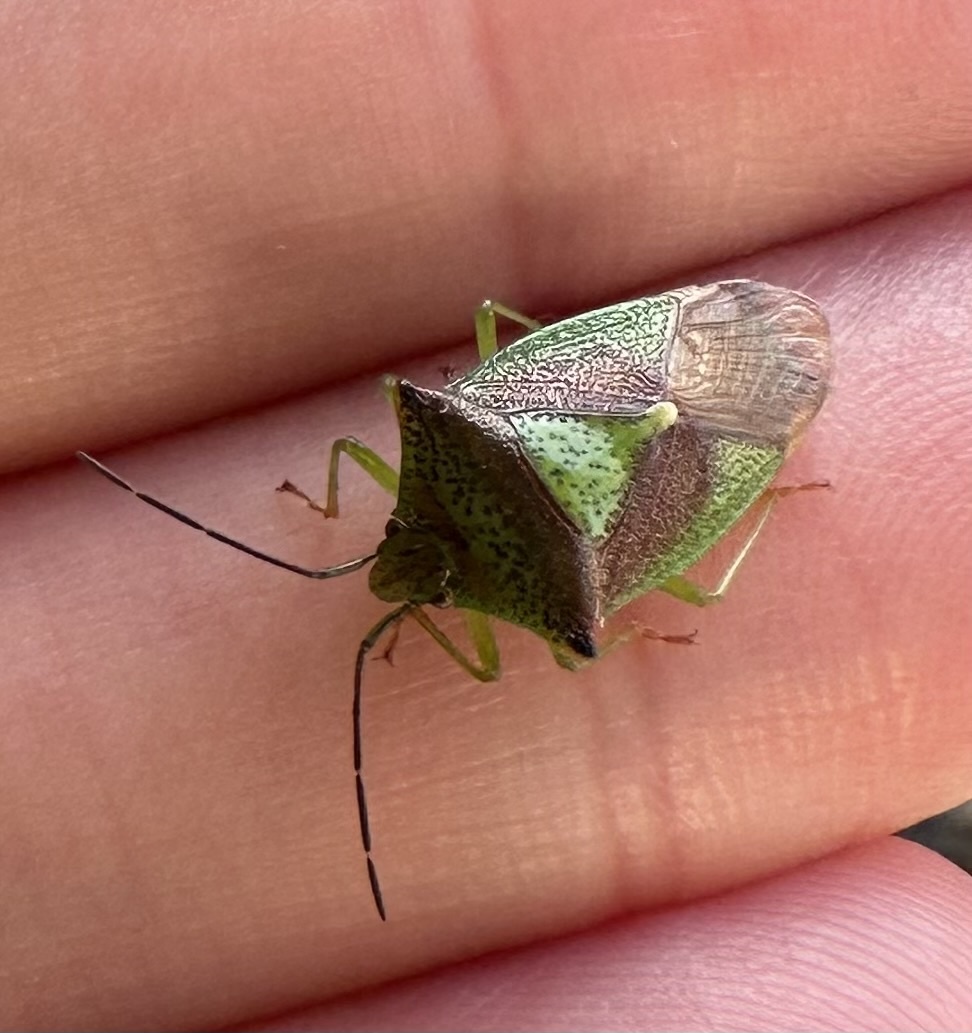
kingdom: Animalia
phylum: Arthropoda
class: Insecta
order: Hemiptera
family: Acanthosomatidae
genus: Acanthosoma
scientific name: Acanthosoma haemorrhoidale
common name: Hawthorn shieldbug
